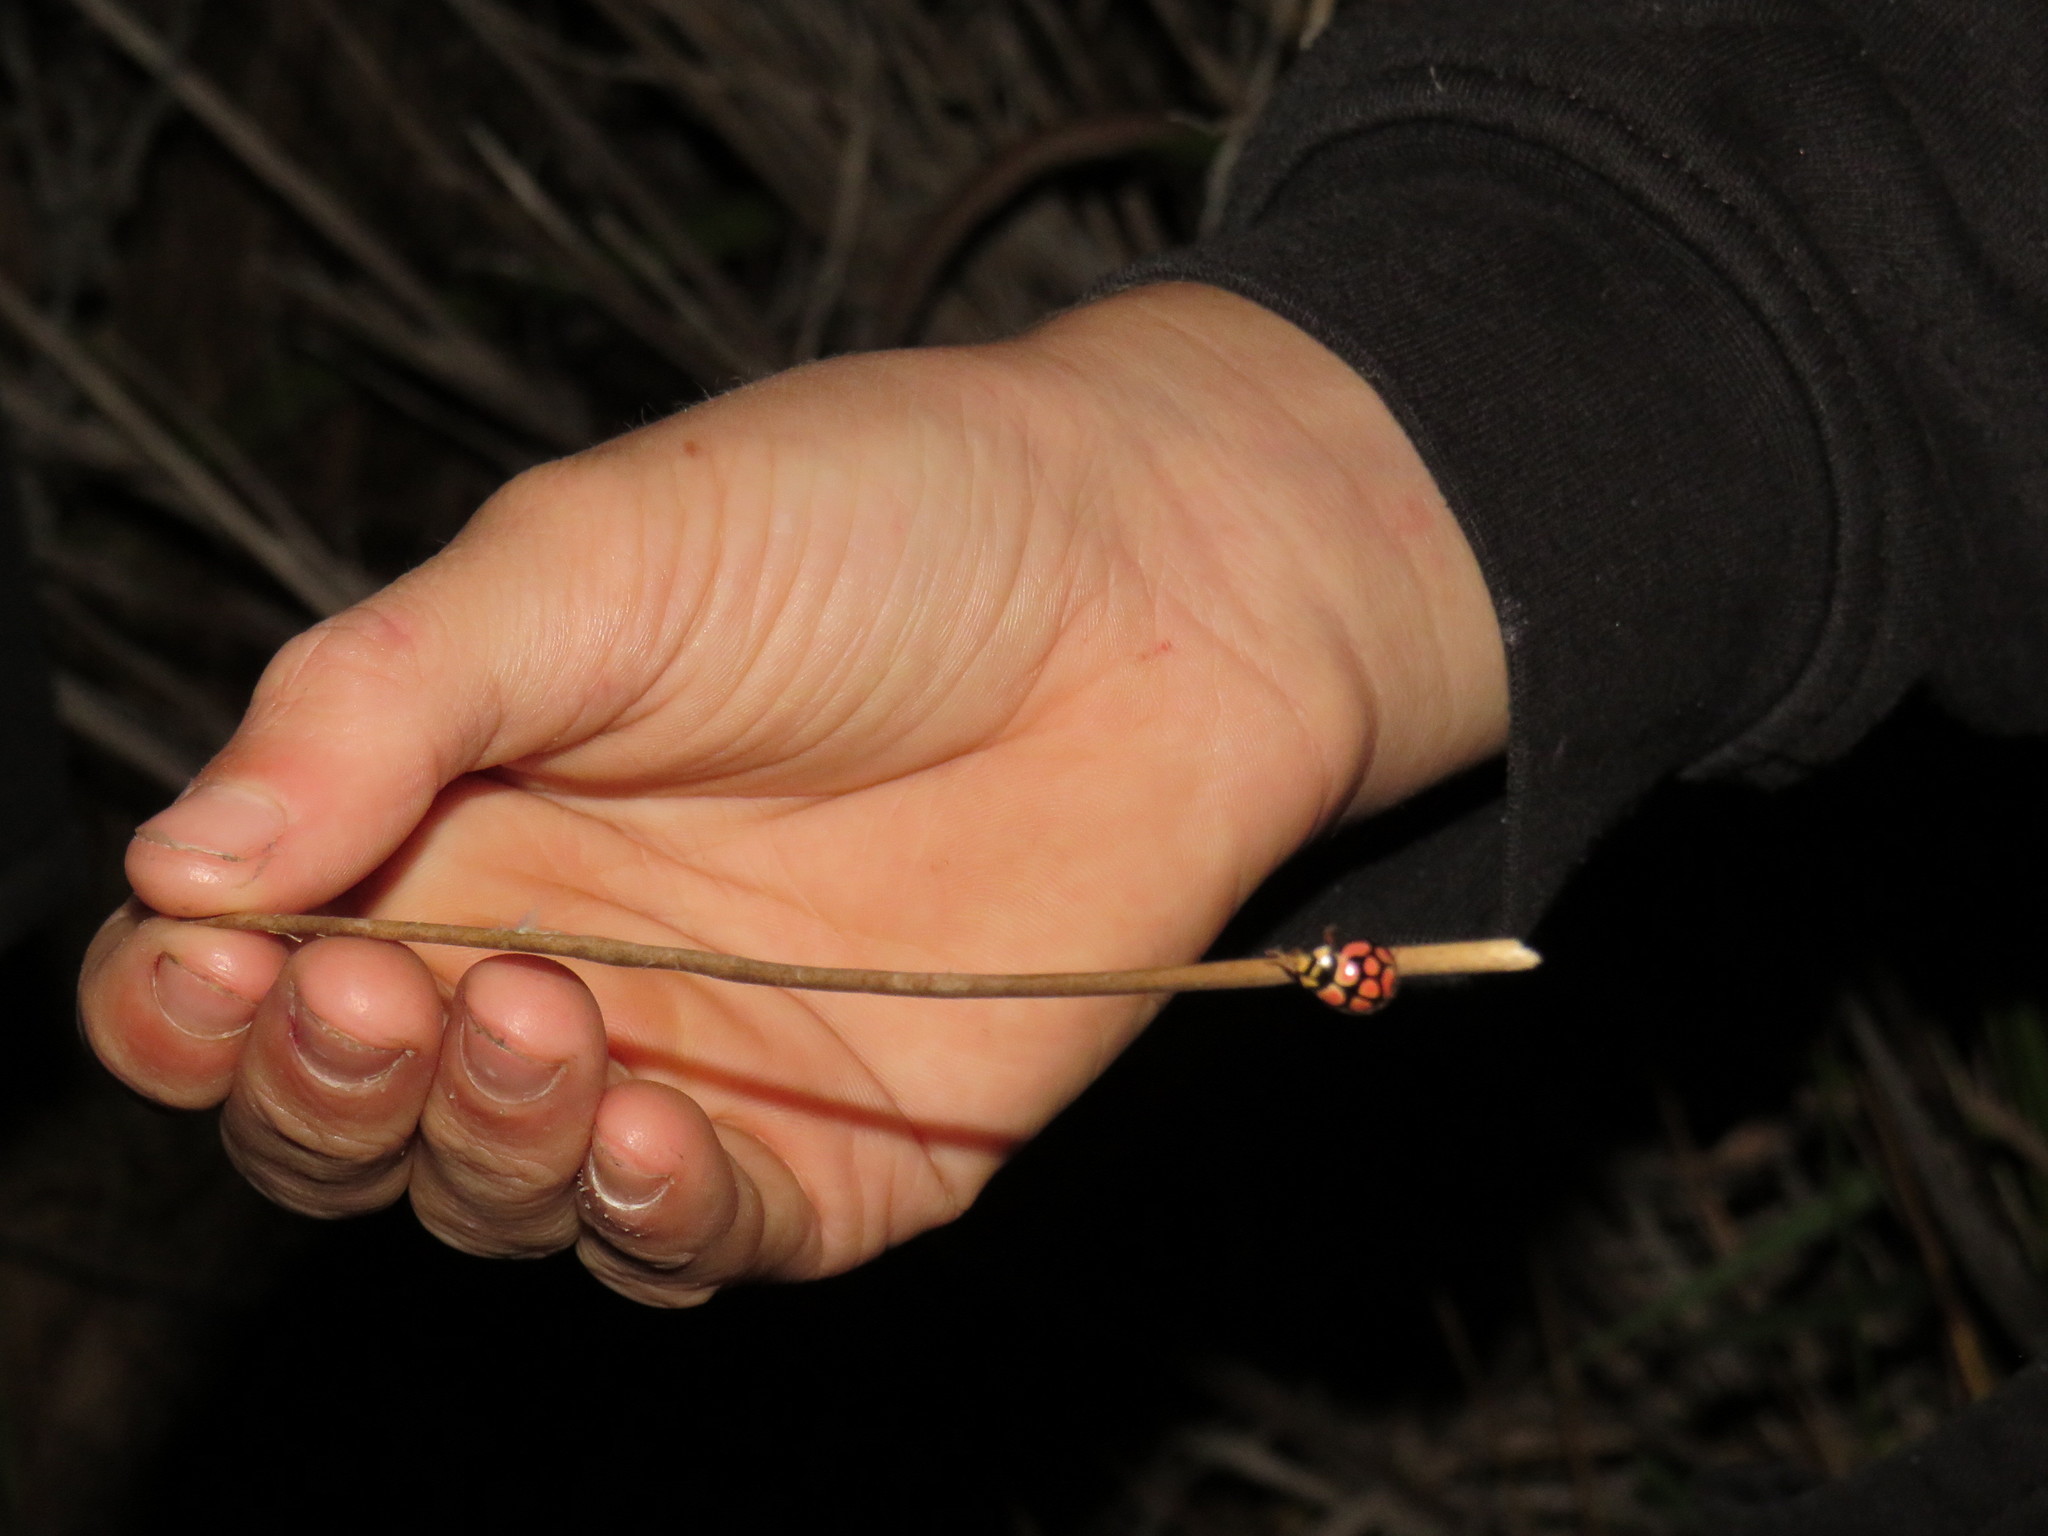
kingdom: Animalia
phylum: Arthropoda
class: Insecta
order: Coleoptera
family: Coccinellidae
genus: Cheilomenes
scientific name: Cheilomenes lunata
